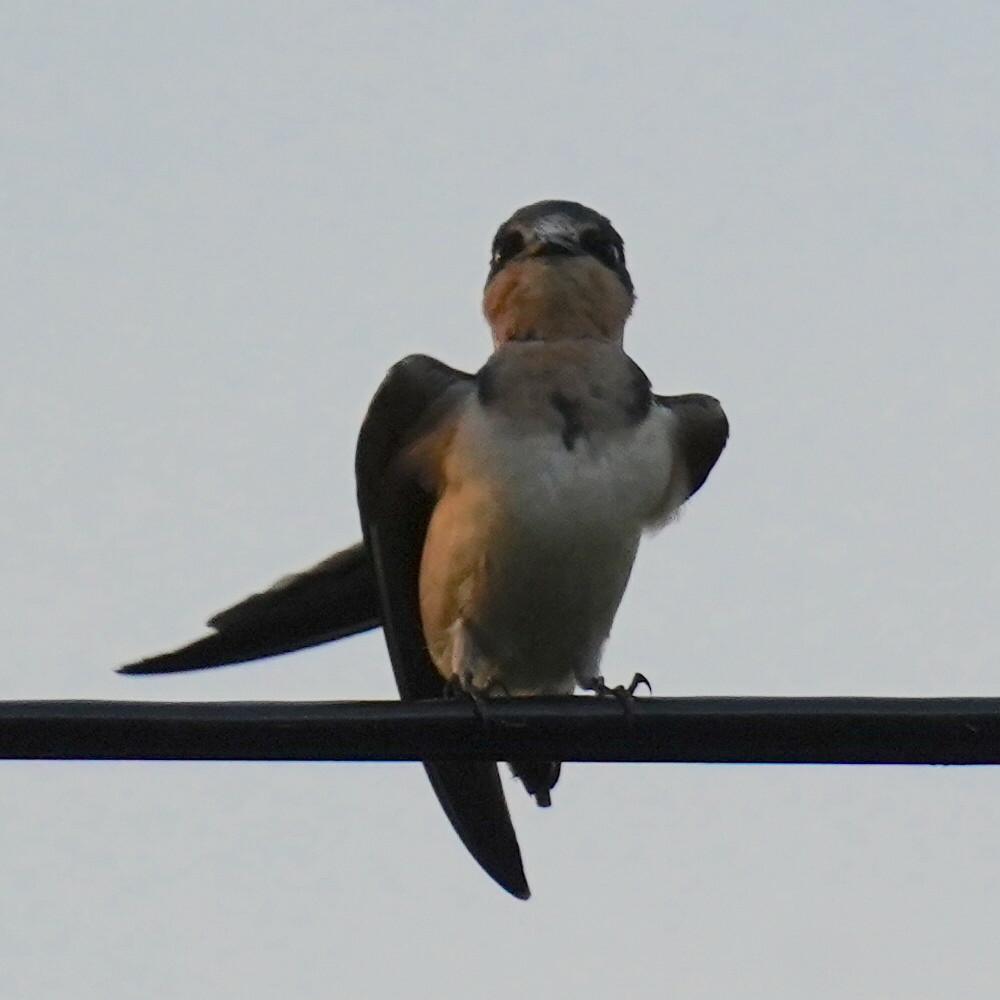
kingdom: Animalia
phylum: Chordata
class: Aves
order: Passeriformes
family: Hirundinidae
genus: Hirundo
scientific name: Hirundo rustica
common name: Barn swallow
